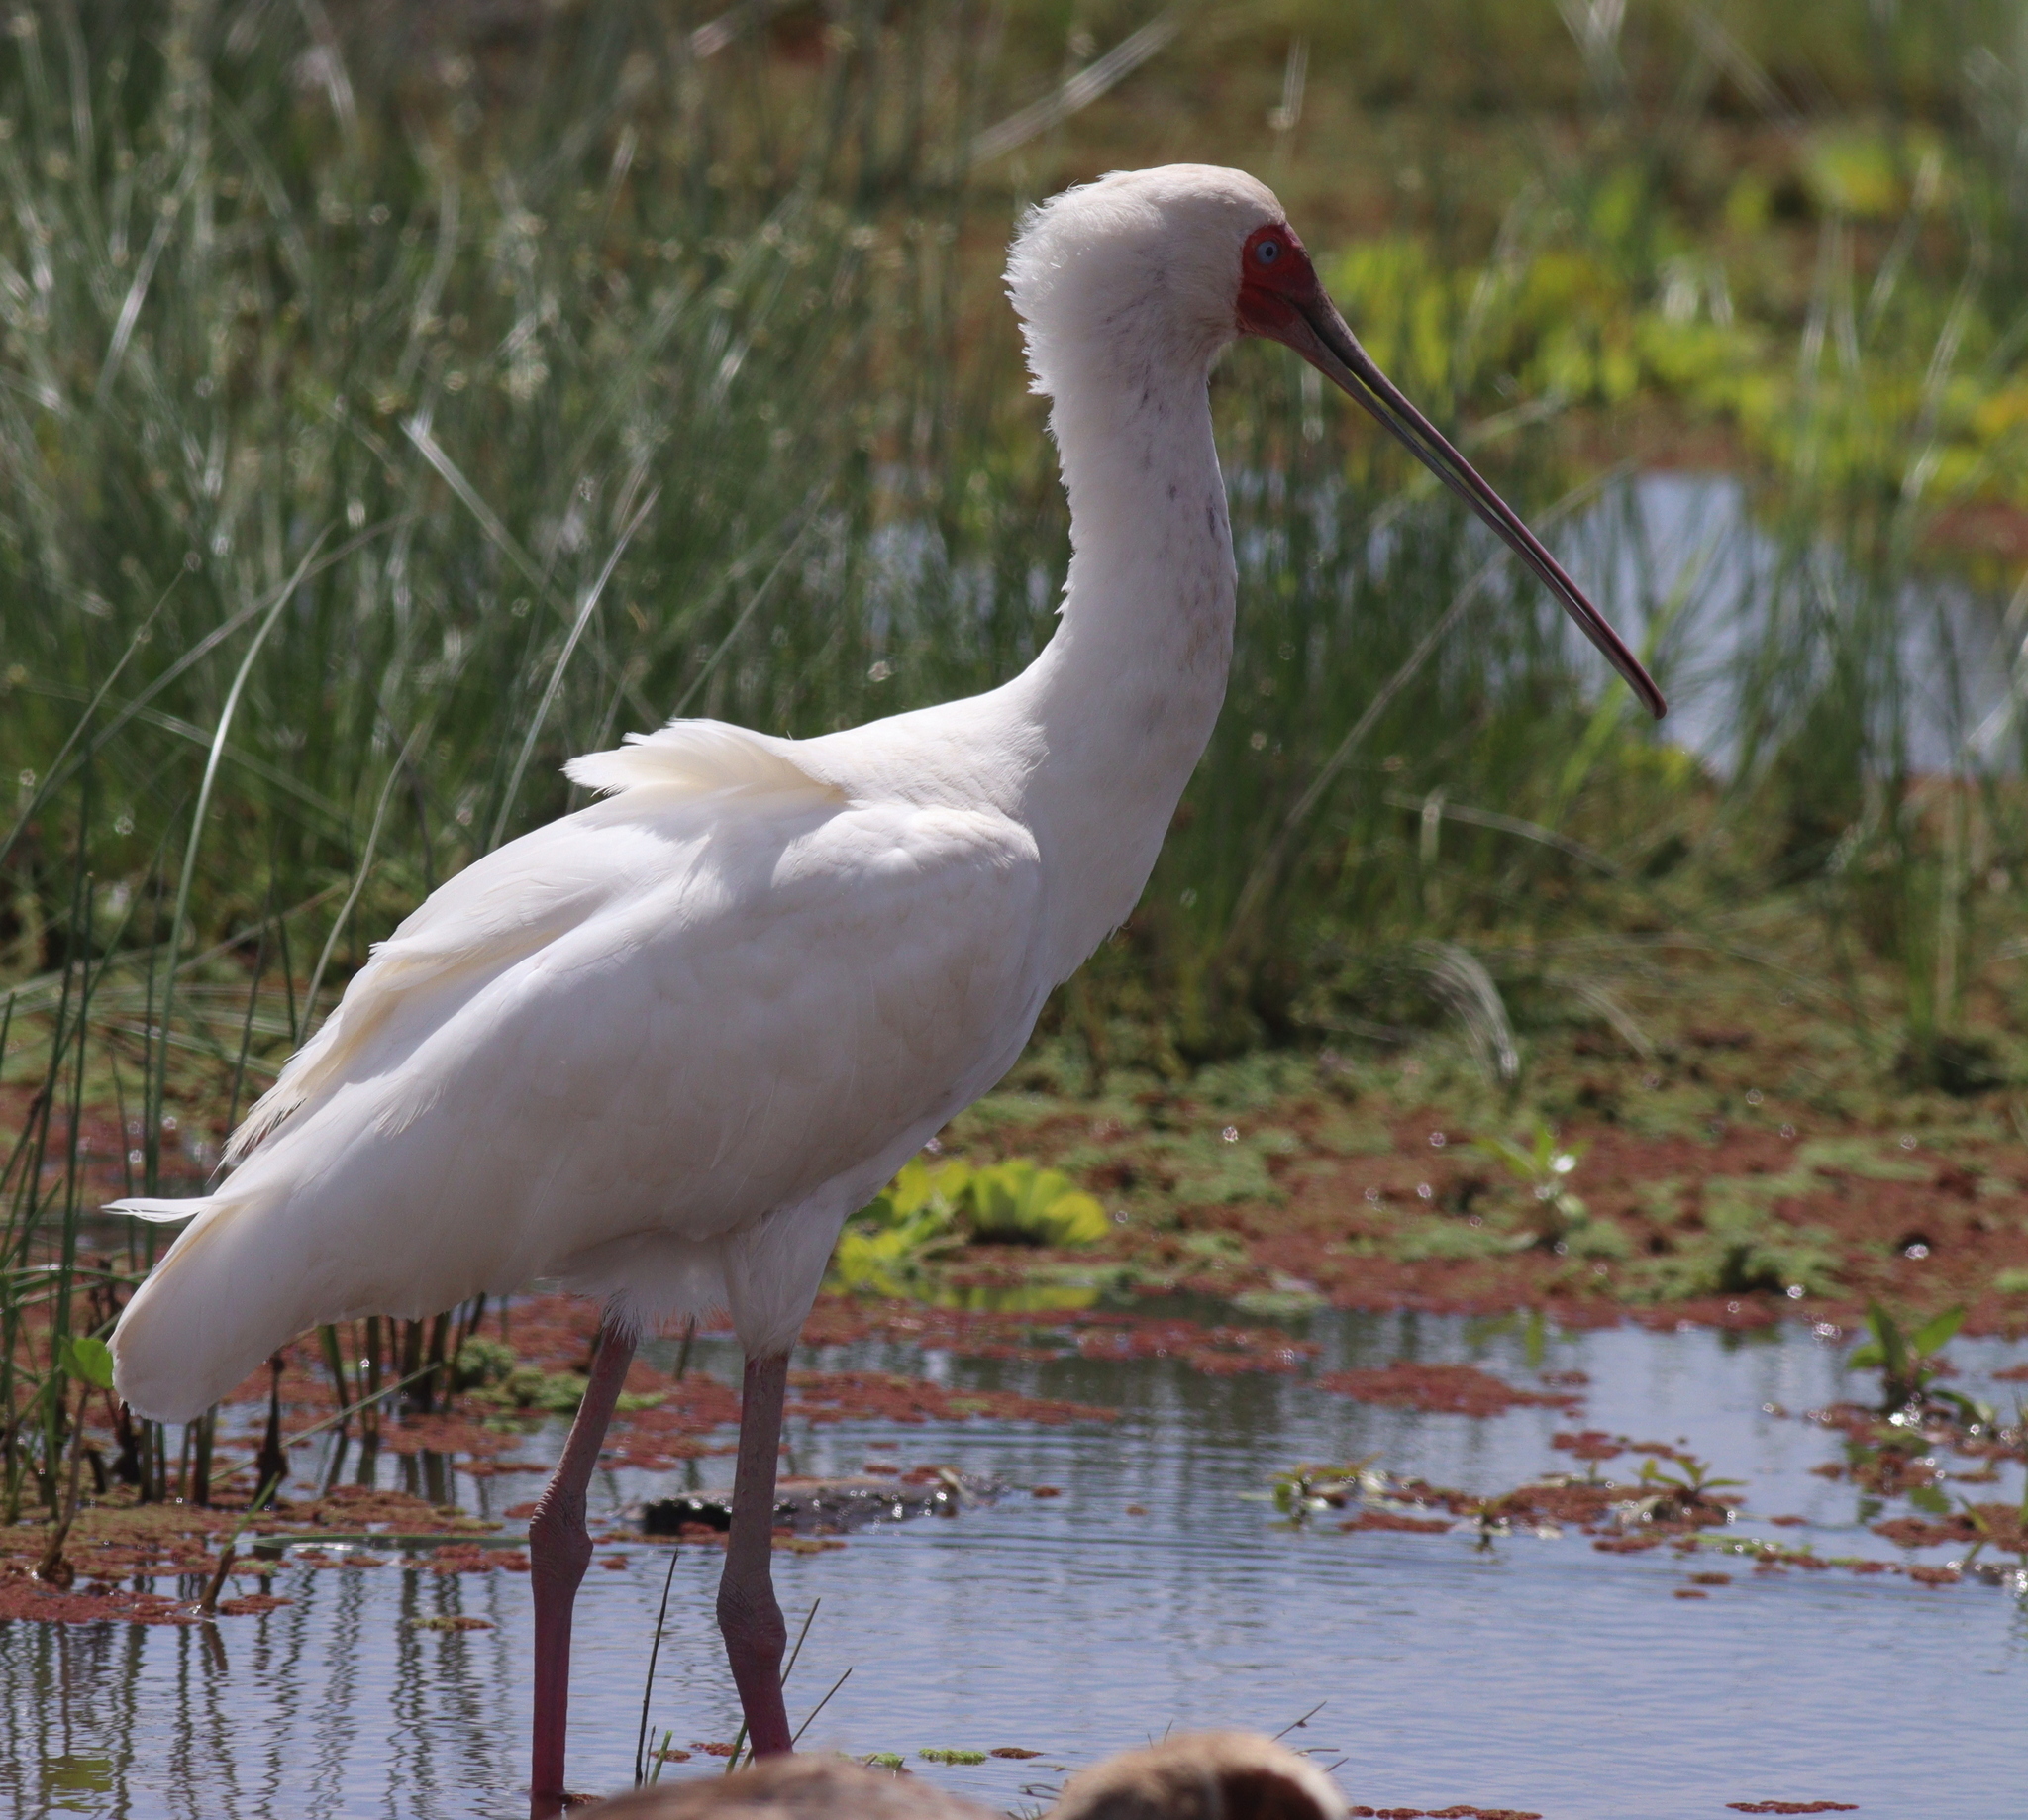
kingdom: Animalia
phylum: Chordata
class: Aves
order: Pelecaniformes
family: Threskiornithidae
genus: Platalea
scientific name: Platalea alba
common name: African spoonbill
